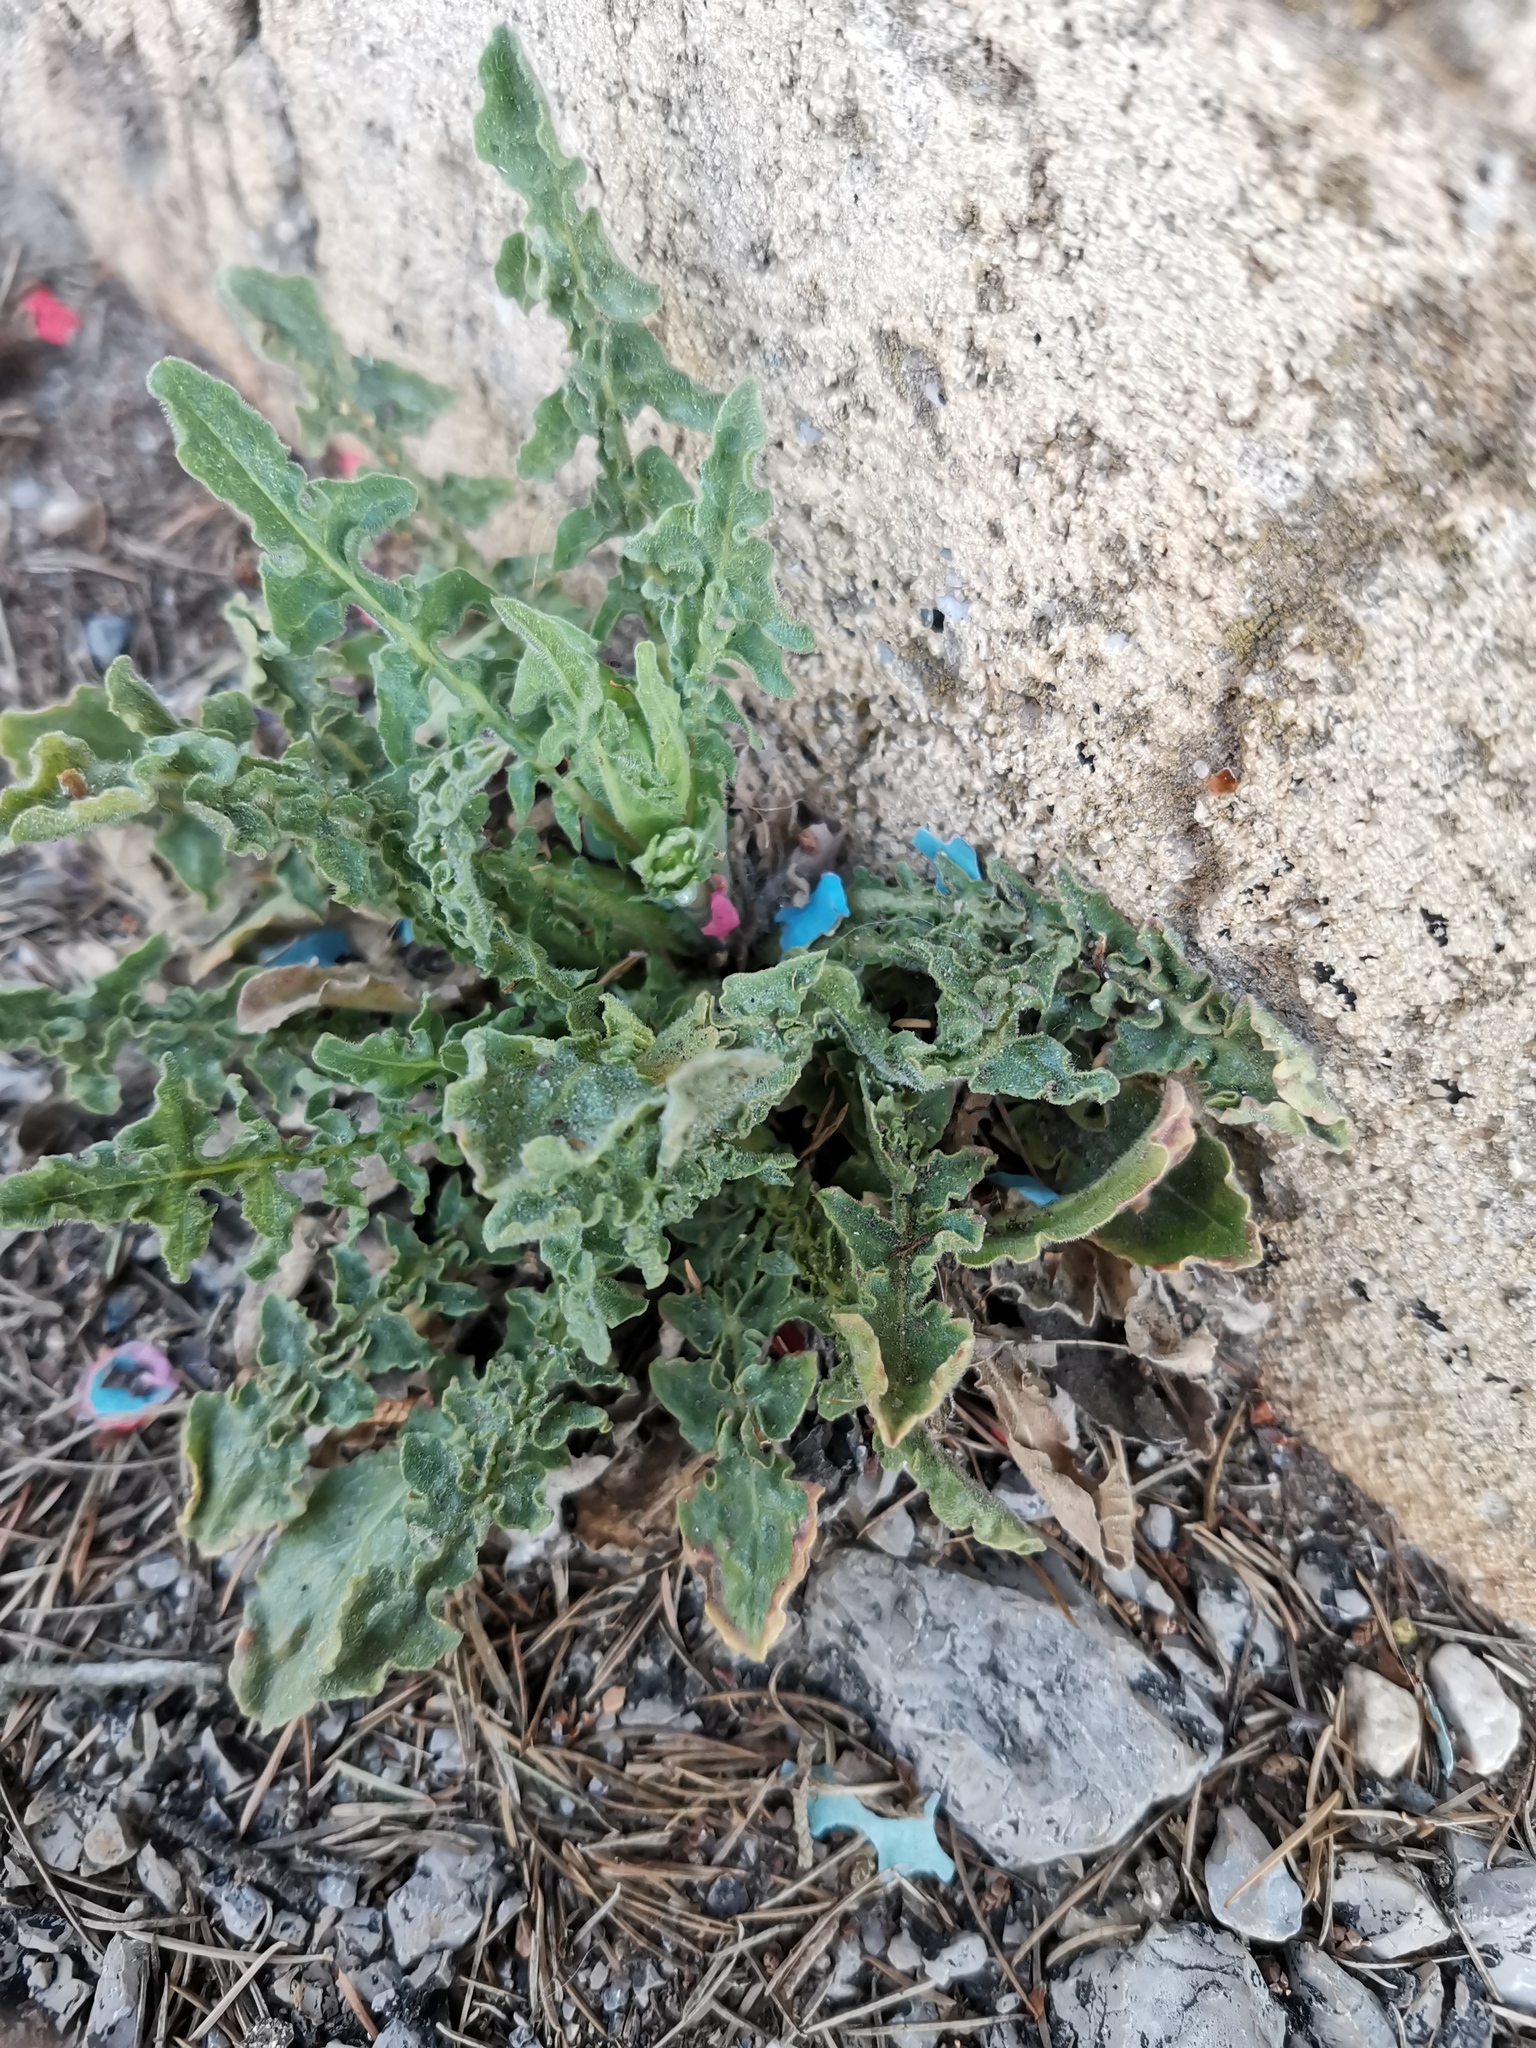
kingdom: Plantae
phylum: Tracheophyta
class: Magnoliopsida
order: Asterales
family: Asteraceae
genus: Urospermum
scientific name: Urospermum dalechampii
